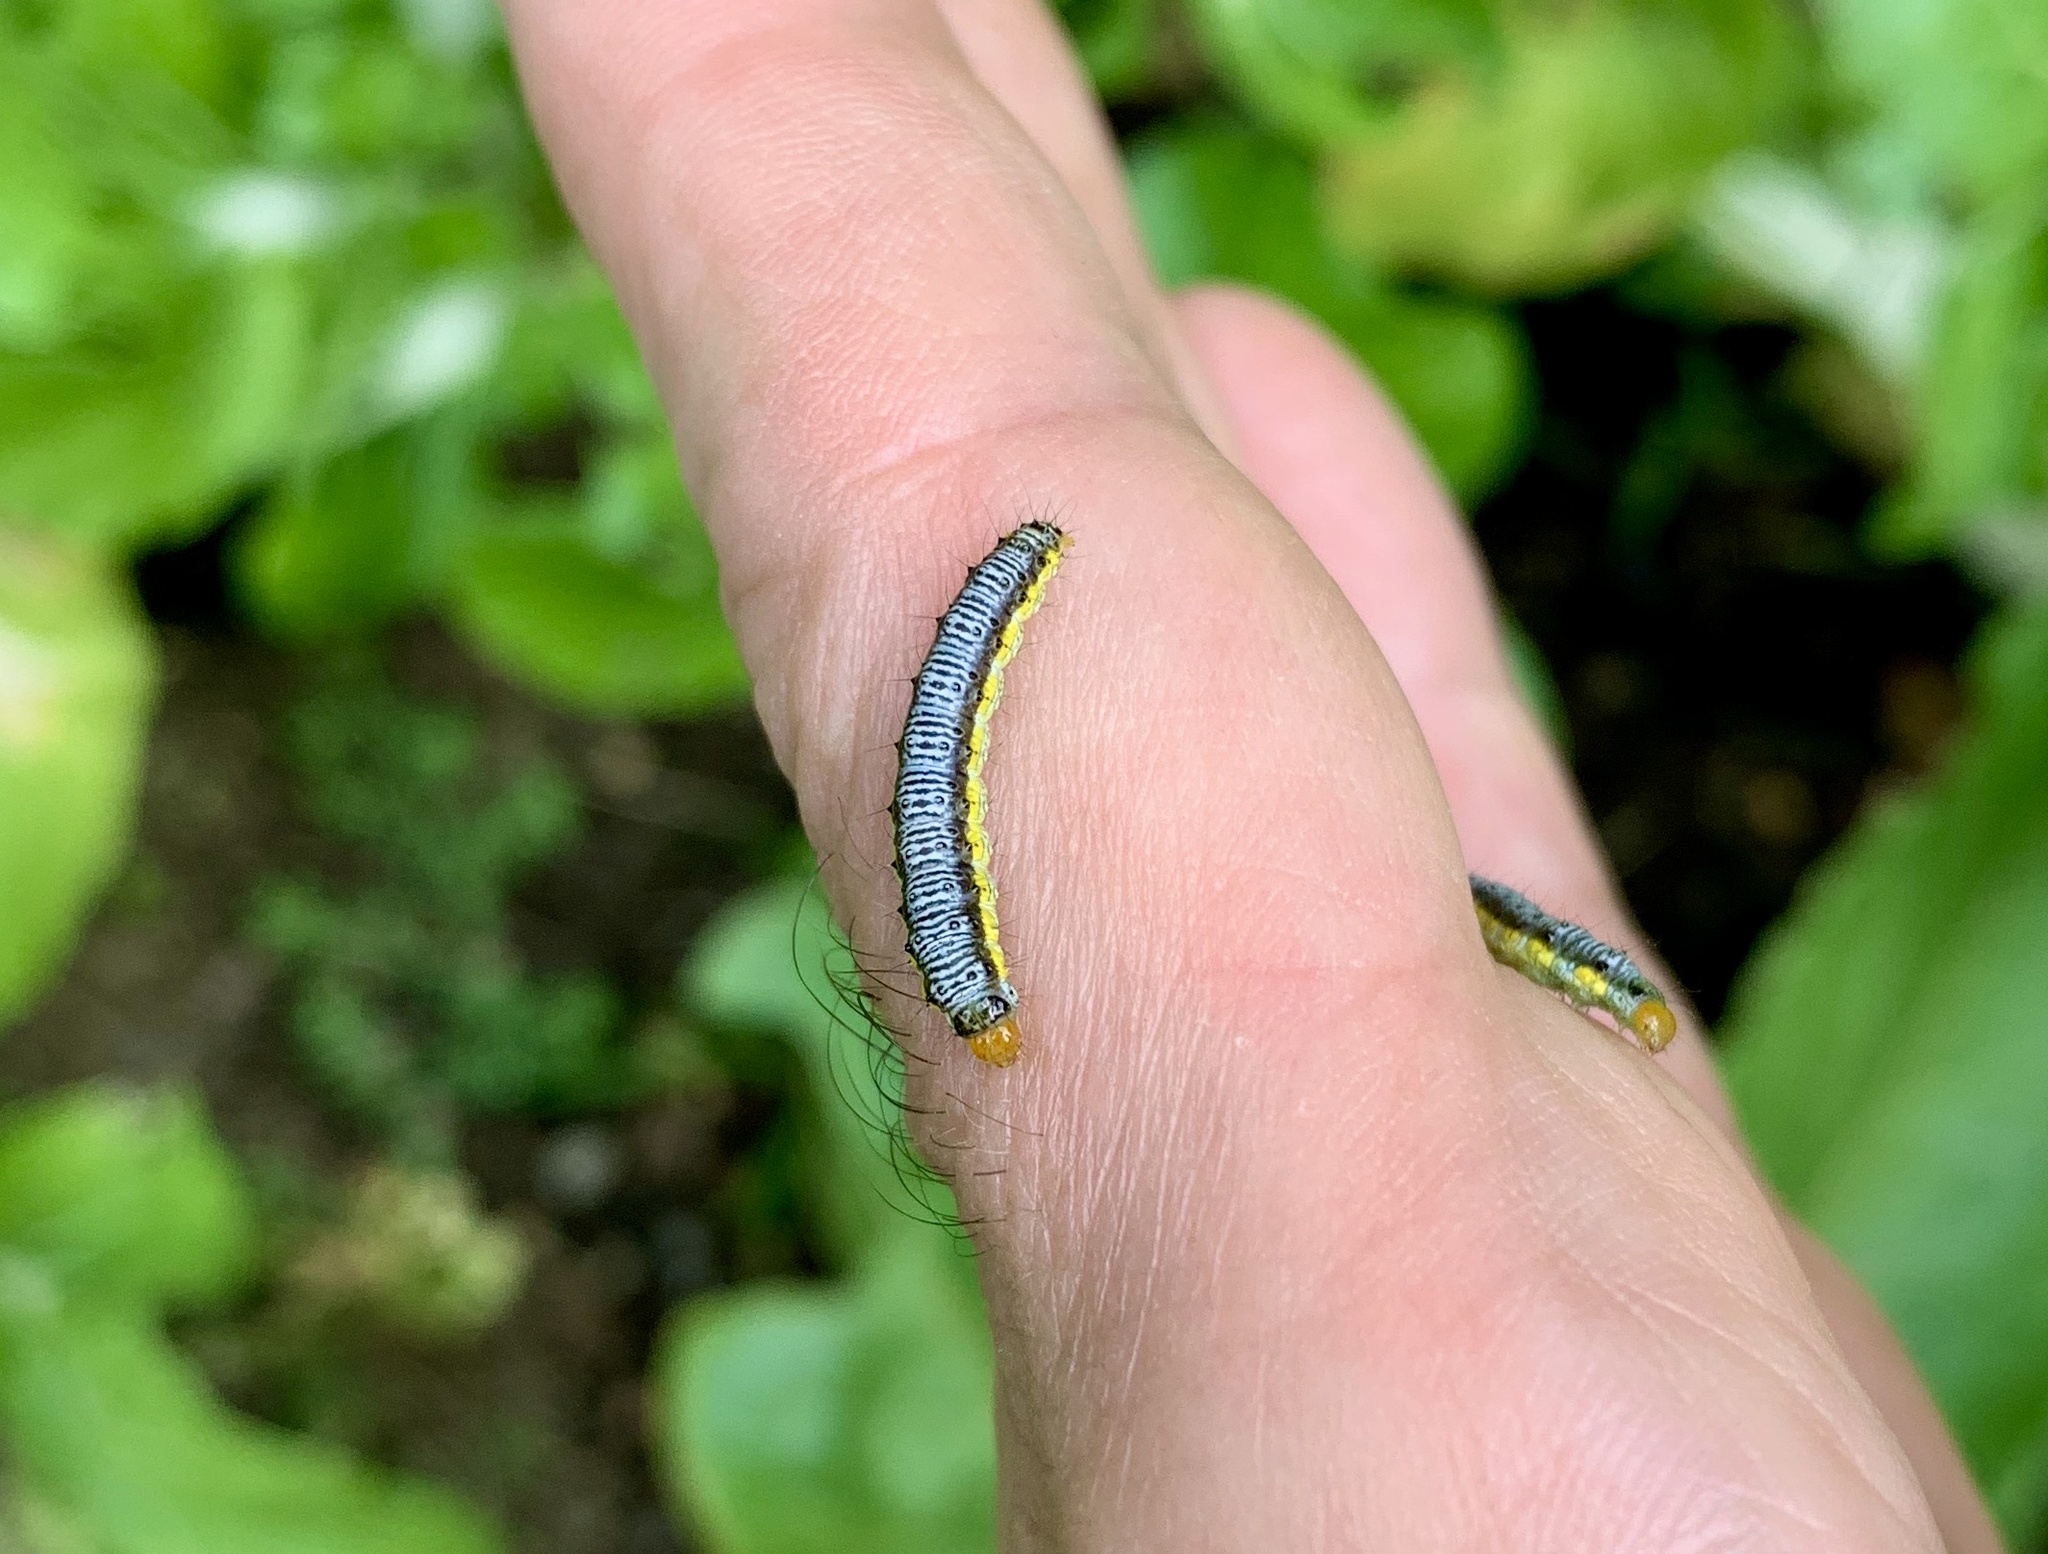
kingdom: Animalia
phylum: Arthropoda
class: Insecta
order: Lepidoptera
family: Crambidae
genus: Evergestis
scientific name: Evergestis rimosalis
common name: Cross-striped cabbageworm moth
